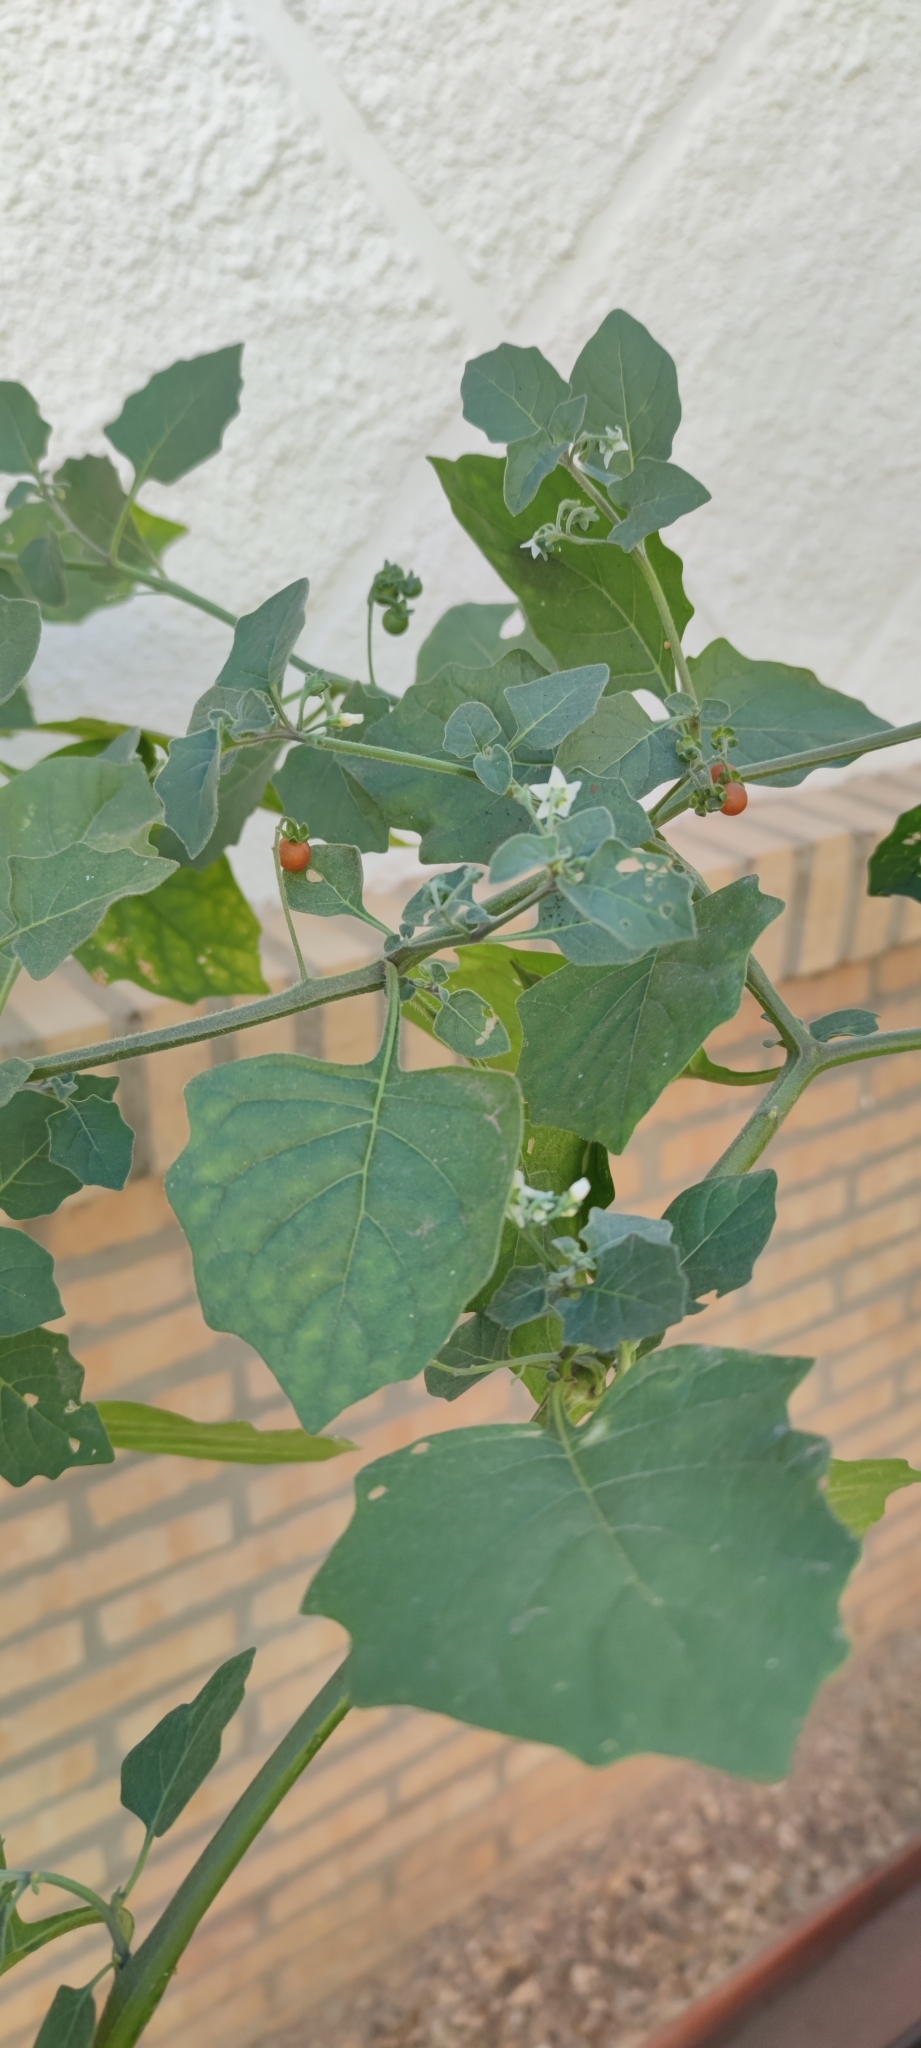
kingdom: Plantae
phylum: Tracheophyta
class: Magnoliopsida
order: Solanales
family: Solanaceae
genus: Solanum
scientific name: Solanum villosum
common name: Red nightshade
